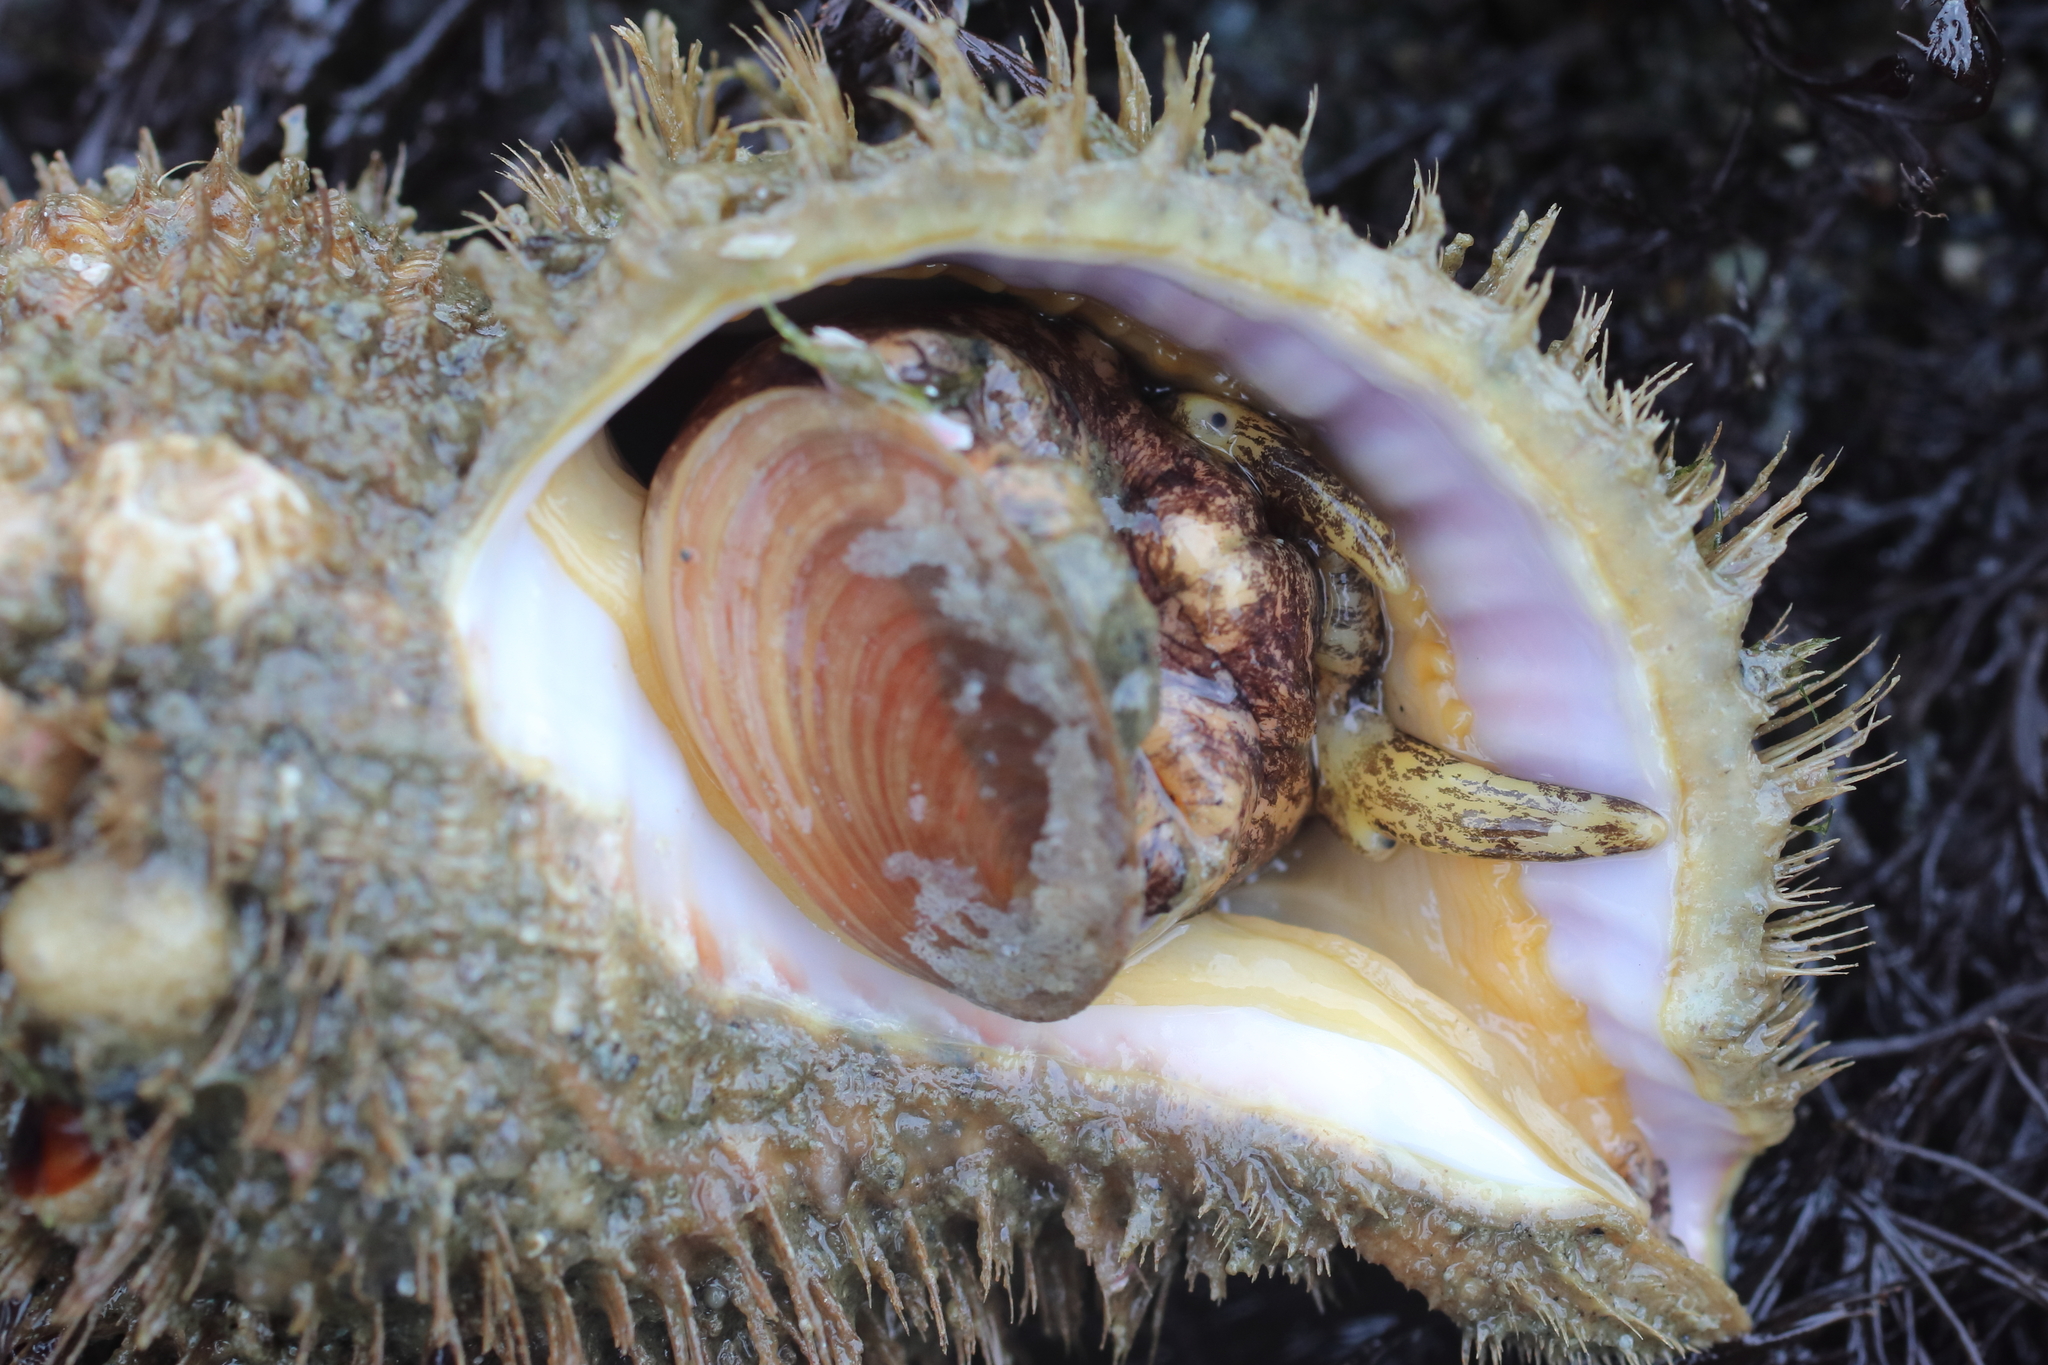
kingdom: Animalia
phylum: Mollusca
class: Gastropoda
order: Littorinimorpha
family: Cymatiidae
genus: Fusitriton
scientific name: Fusitriton oregonensis
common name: Oregon hairy triton
